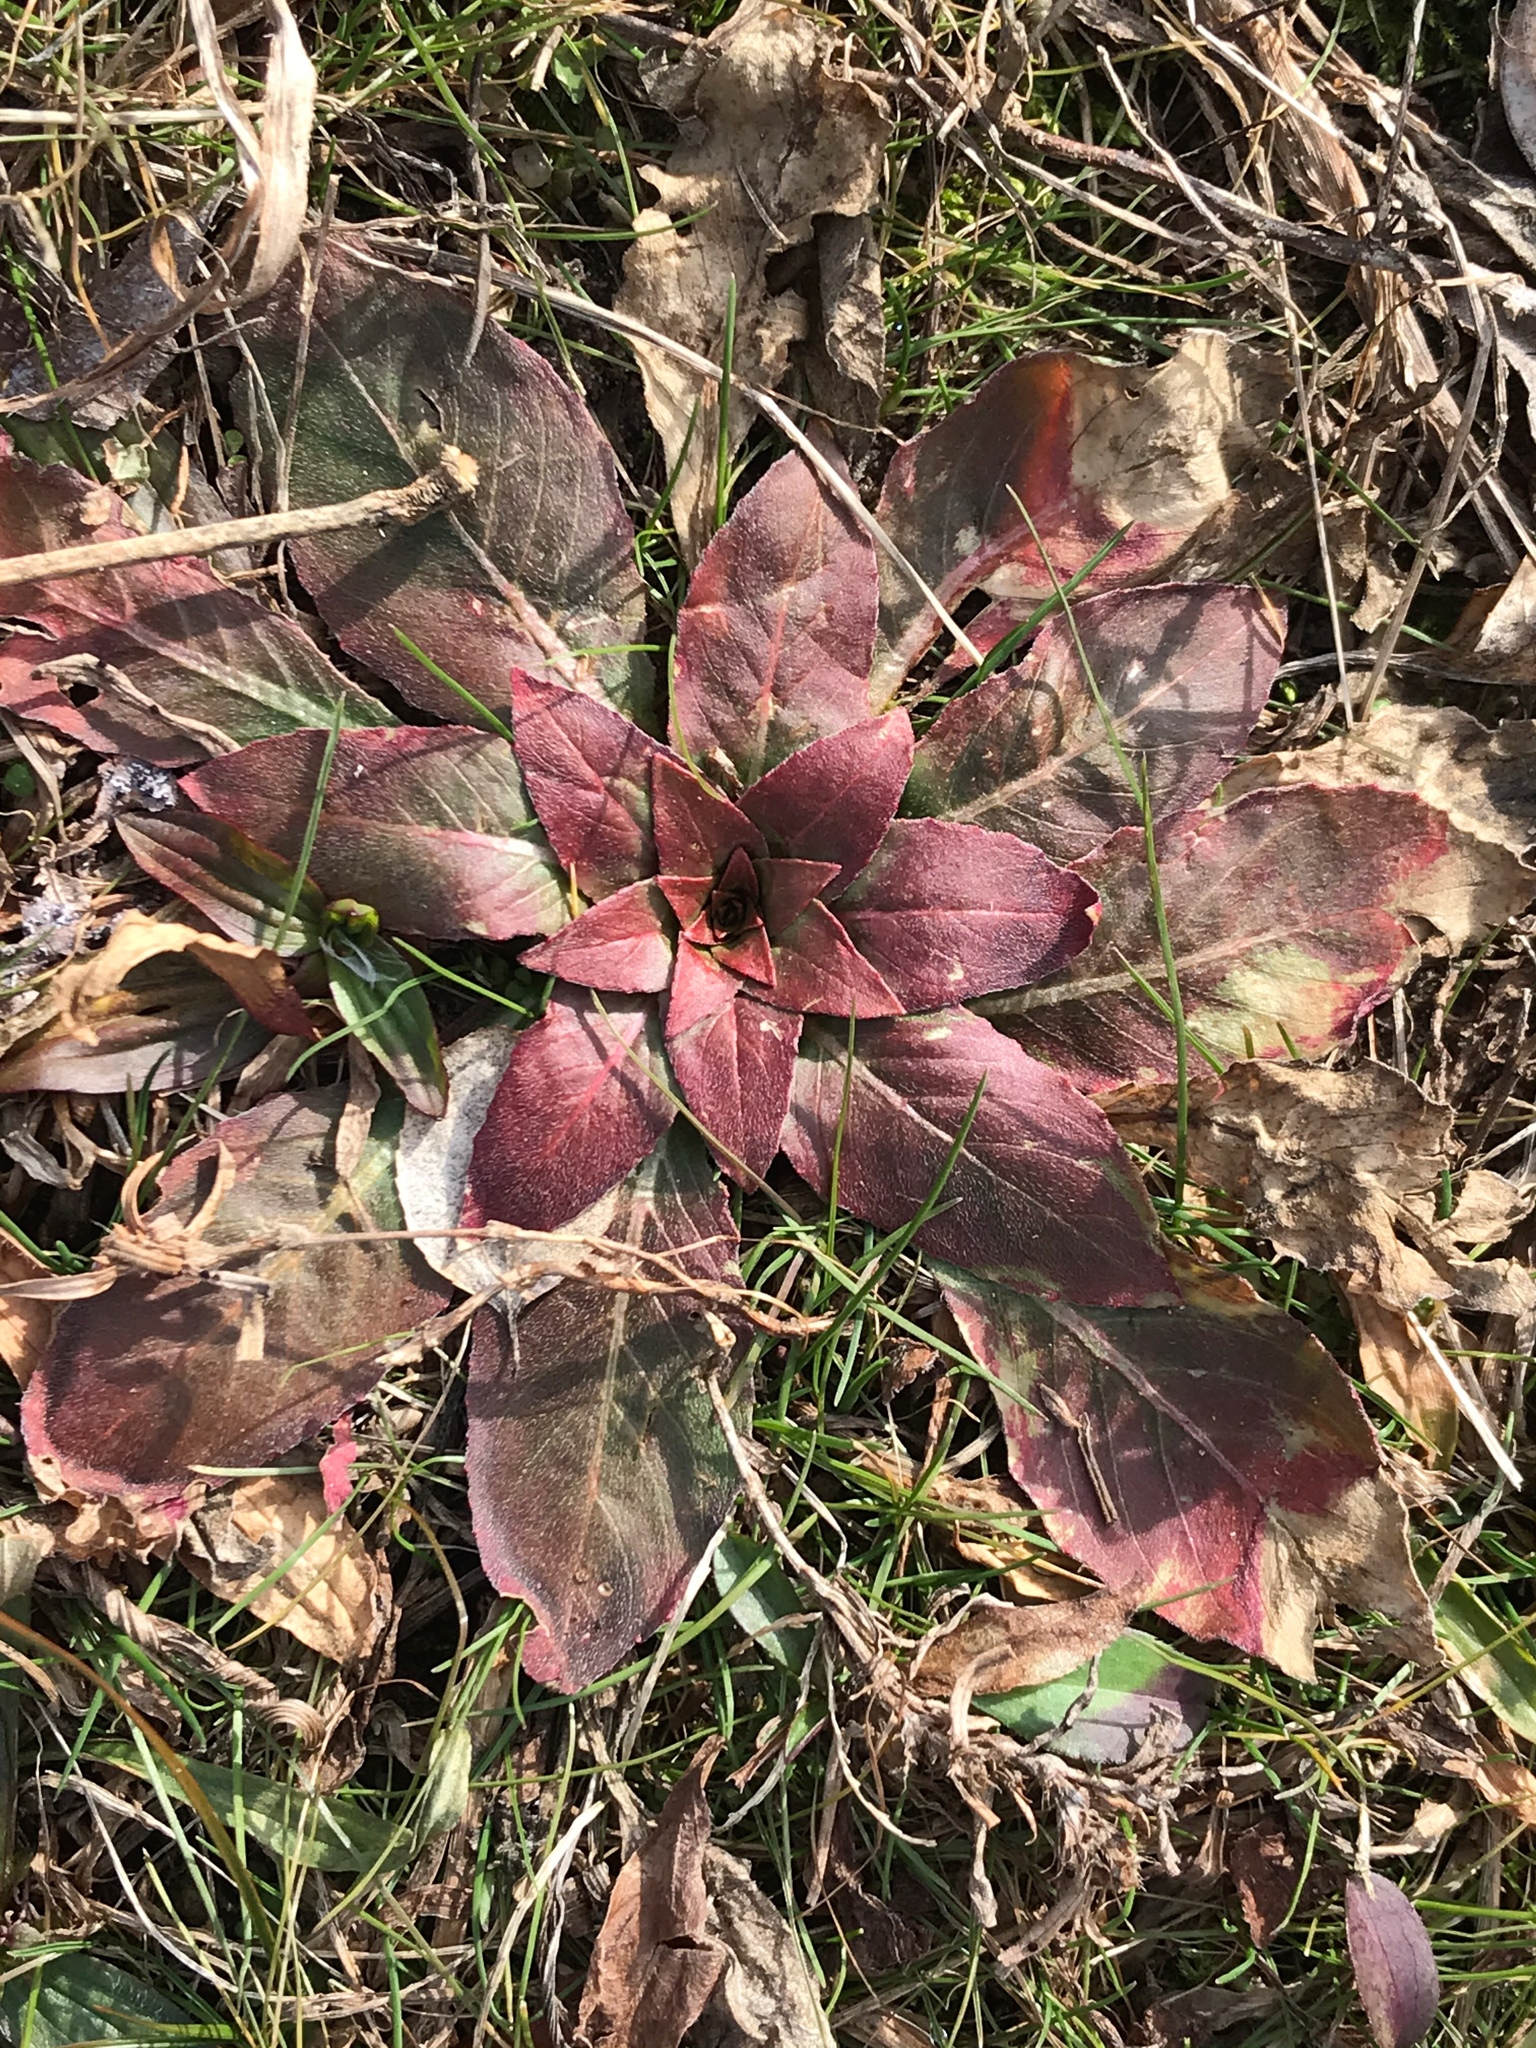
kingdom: Plantae
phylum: Tracheophyta
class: Magnoliopsida
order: Myrtales
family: Onagraceae
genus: Oenothera
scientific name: Oenothera biennis
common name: Common evening-primrose
